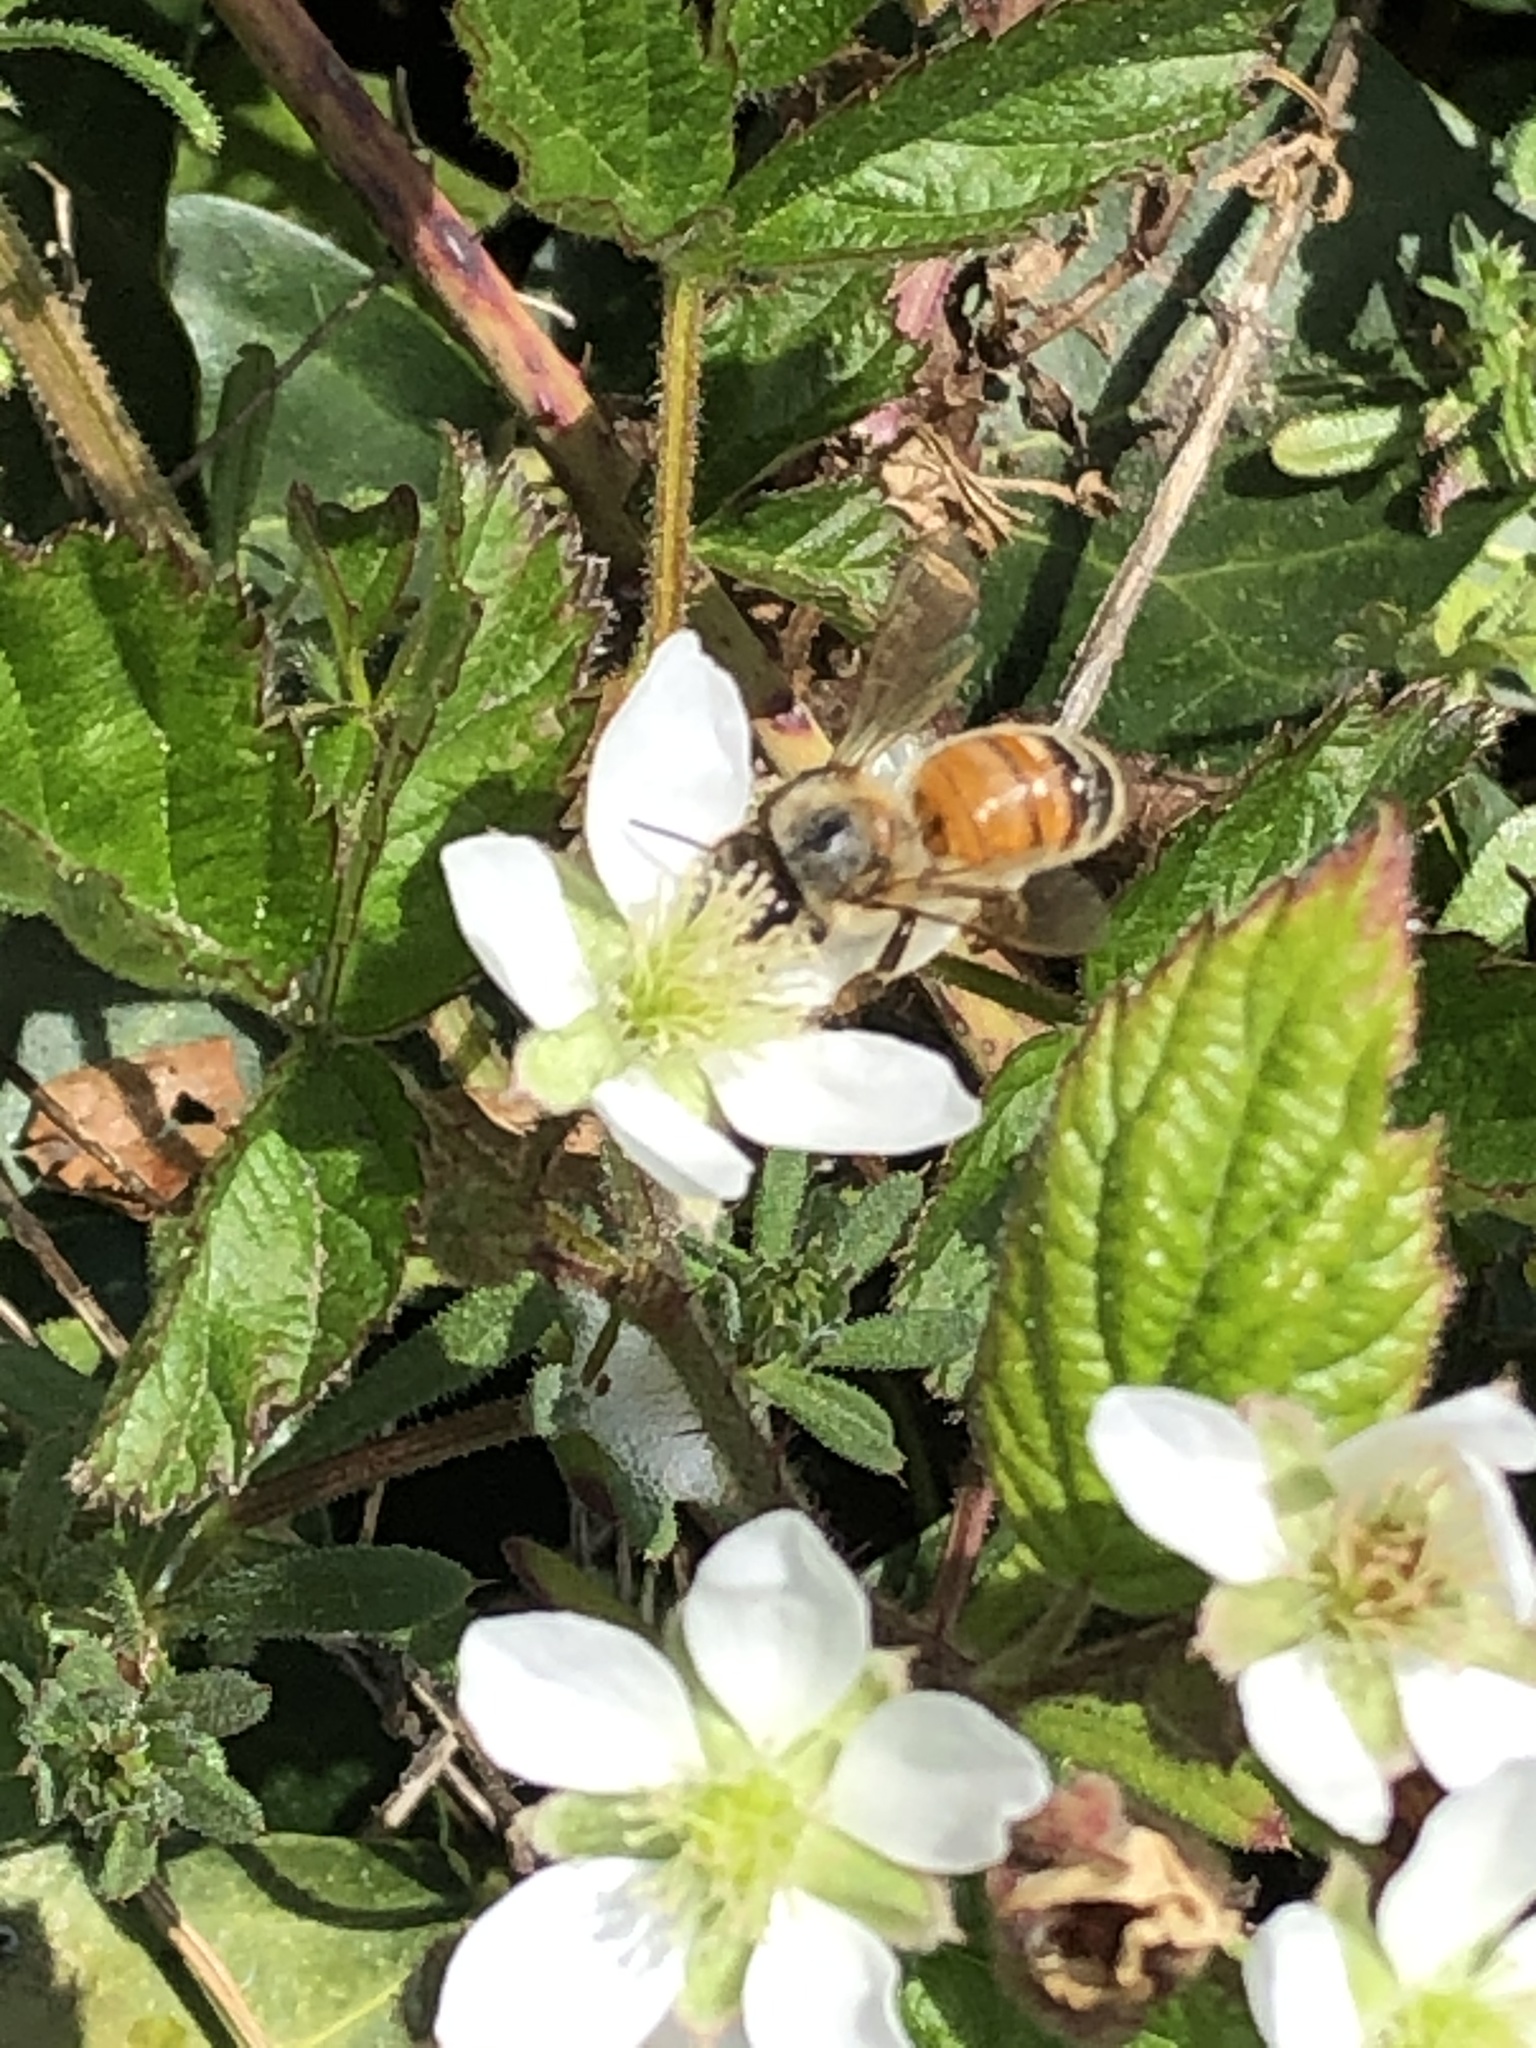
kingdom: Animalia
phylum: Arthropoda
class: Insecta
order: Hymenoptera
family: Apidae
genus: Apis
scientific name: Apis mellifera
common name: Honey bee
